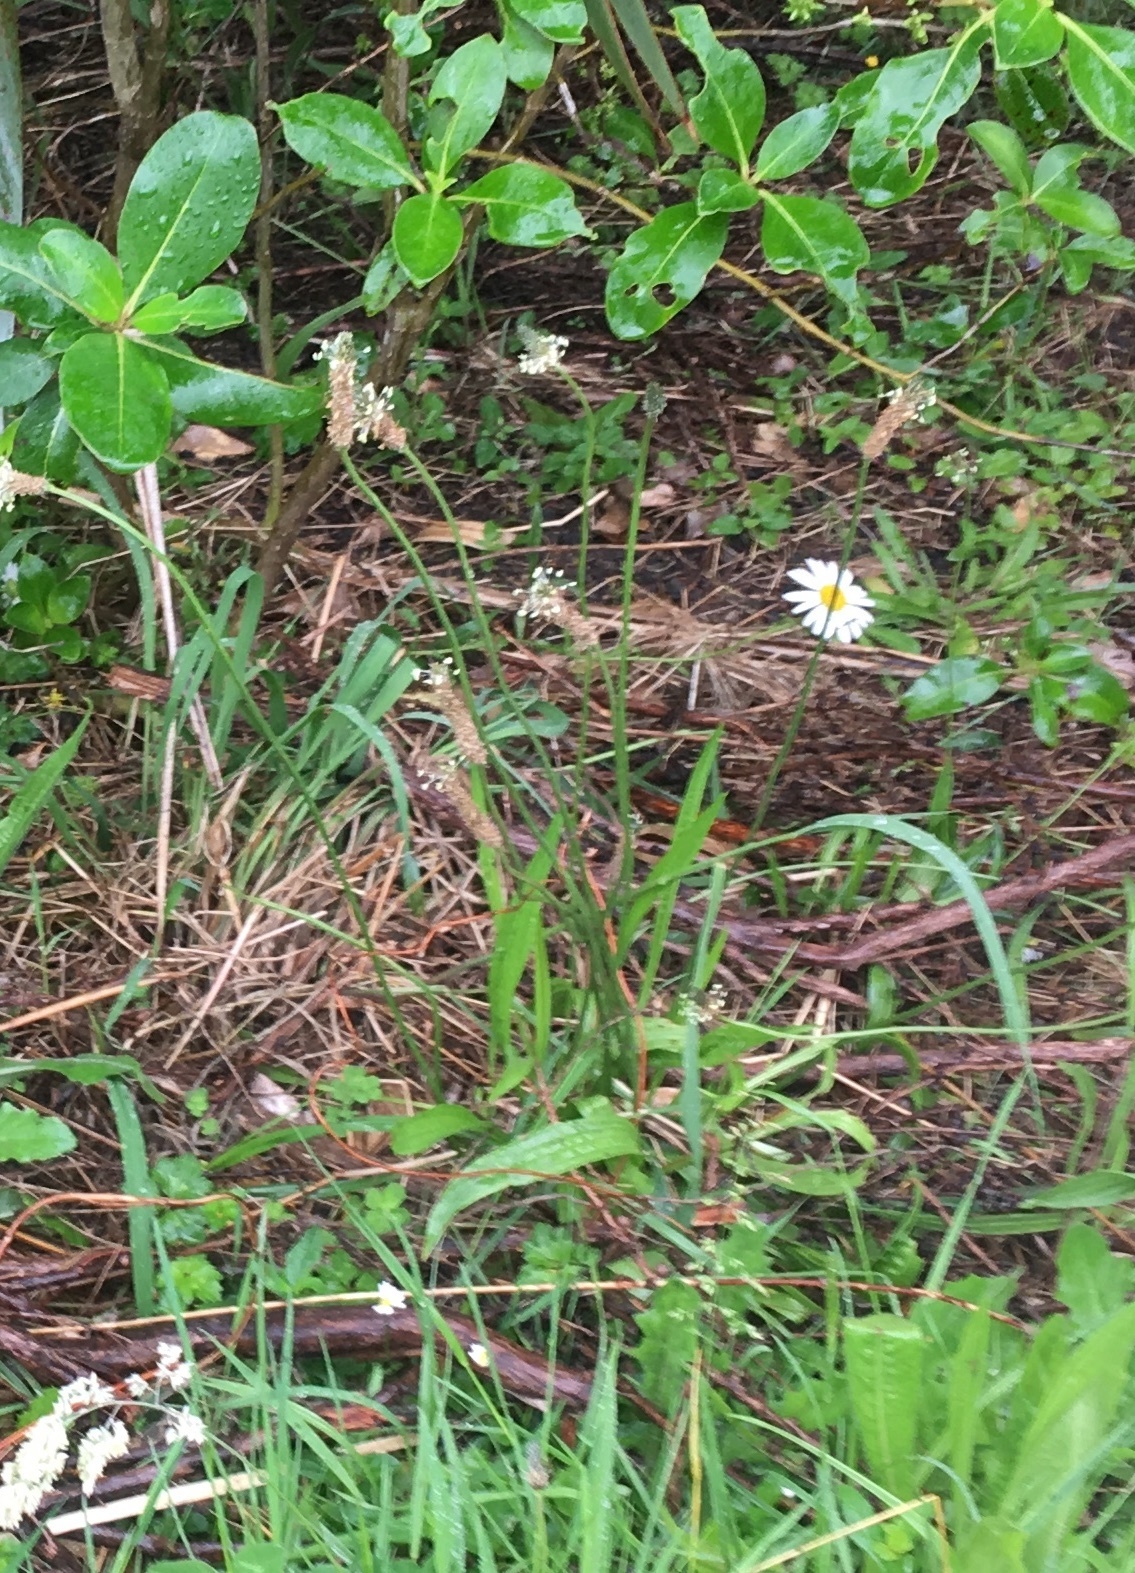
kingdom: Plantae
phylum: Tracheophyta
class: Magnoliopsida
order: Lamiales
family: Plantaginaceae
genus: Plantago
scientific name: Plantago lanceolata
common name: Ribwort plantain
